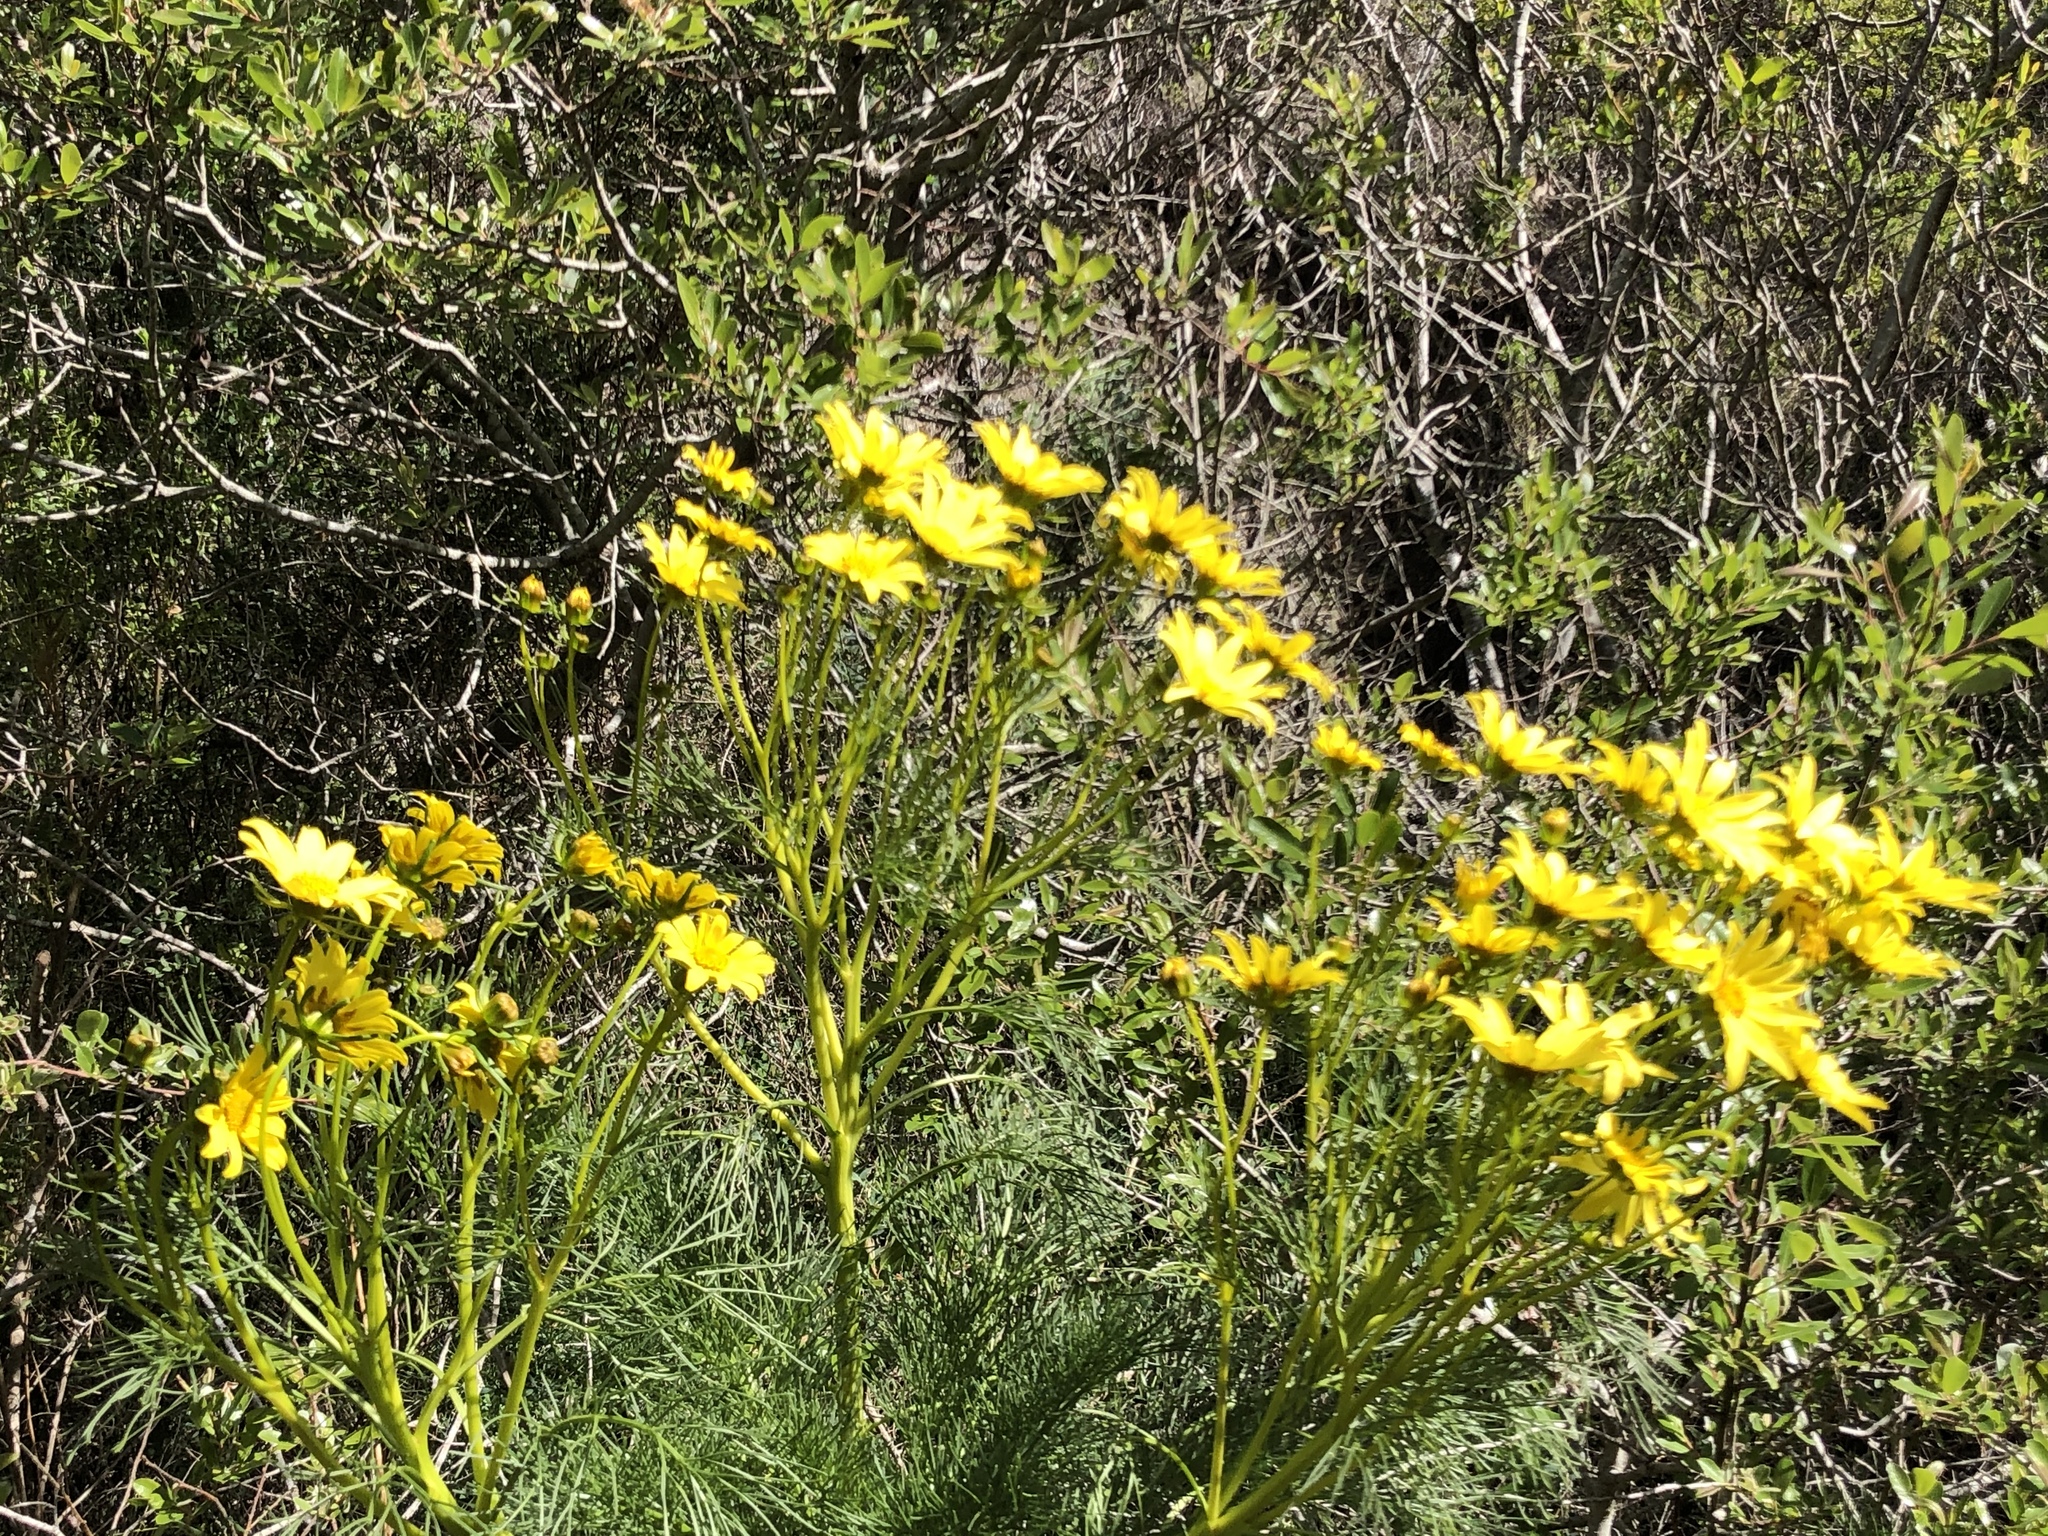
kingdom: Plantae
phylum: Tracheophyta
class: Magnoliopsida
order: Asterales
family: Asteraceae
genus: Coreopsis
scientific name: Coreopsis gigantea
